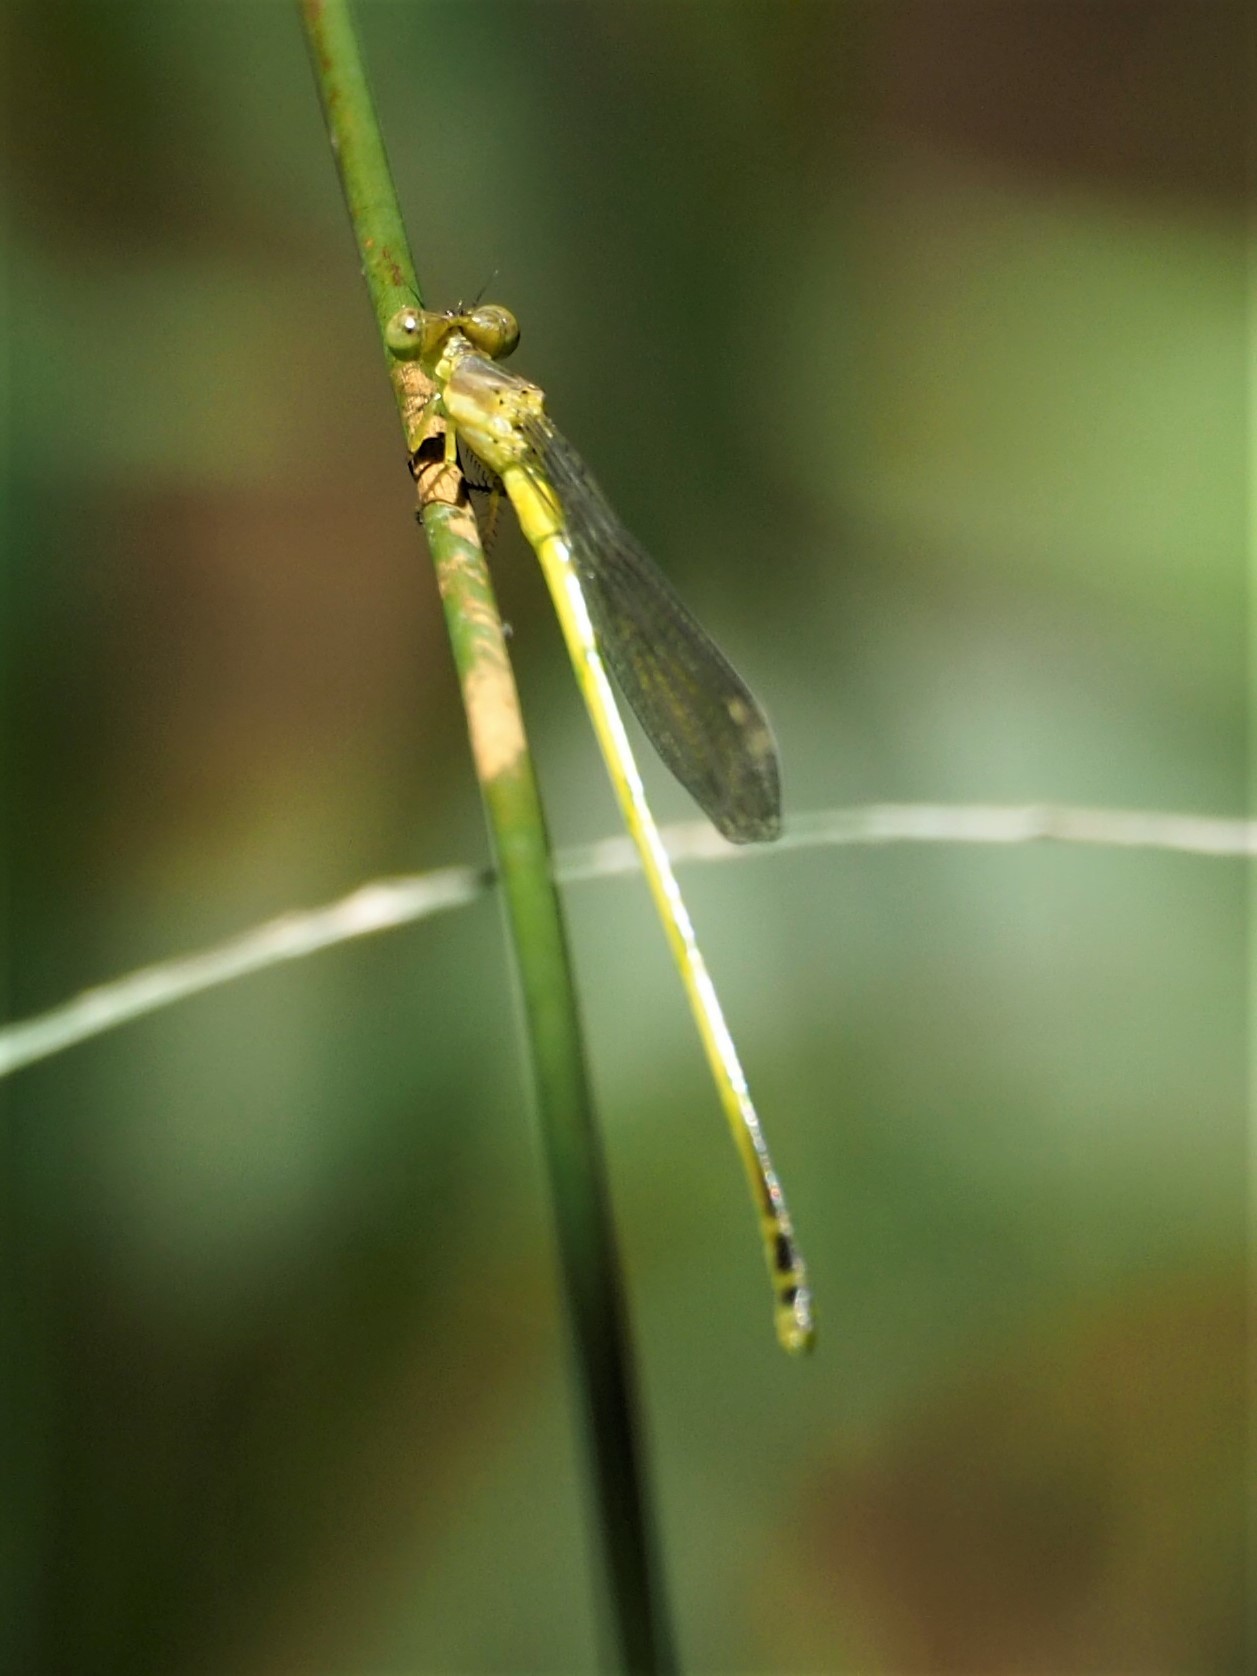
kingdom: Animalia
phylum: Arthropoda
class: Insecta
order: Odonata
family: Coenagrionidae
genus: Ceriagrion
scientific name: Ceriagrion fallax
